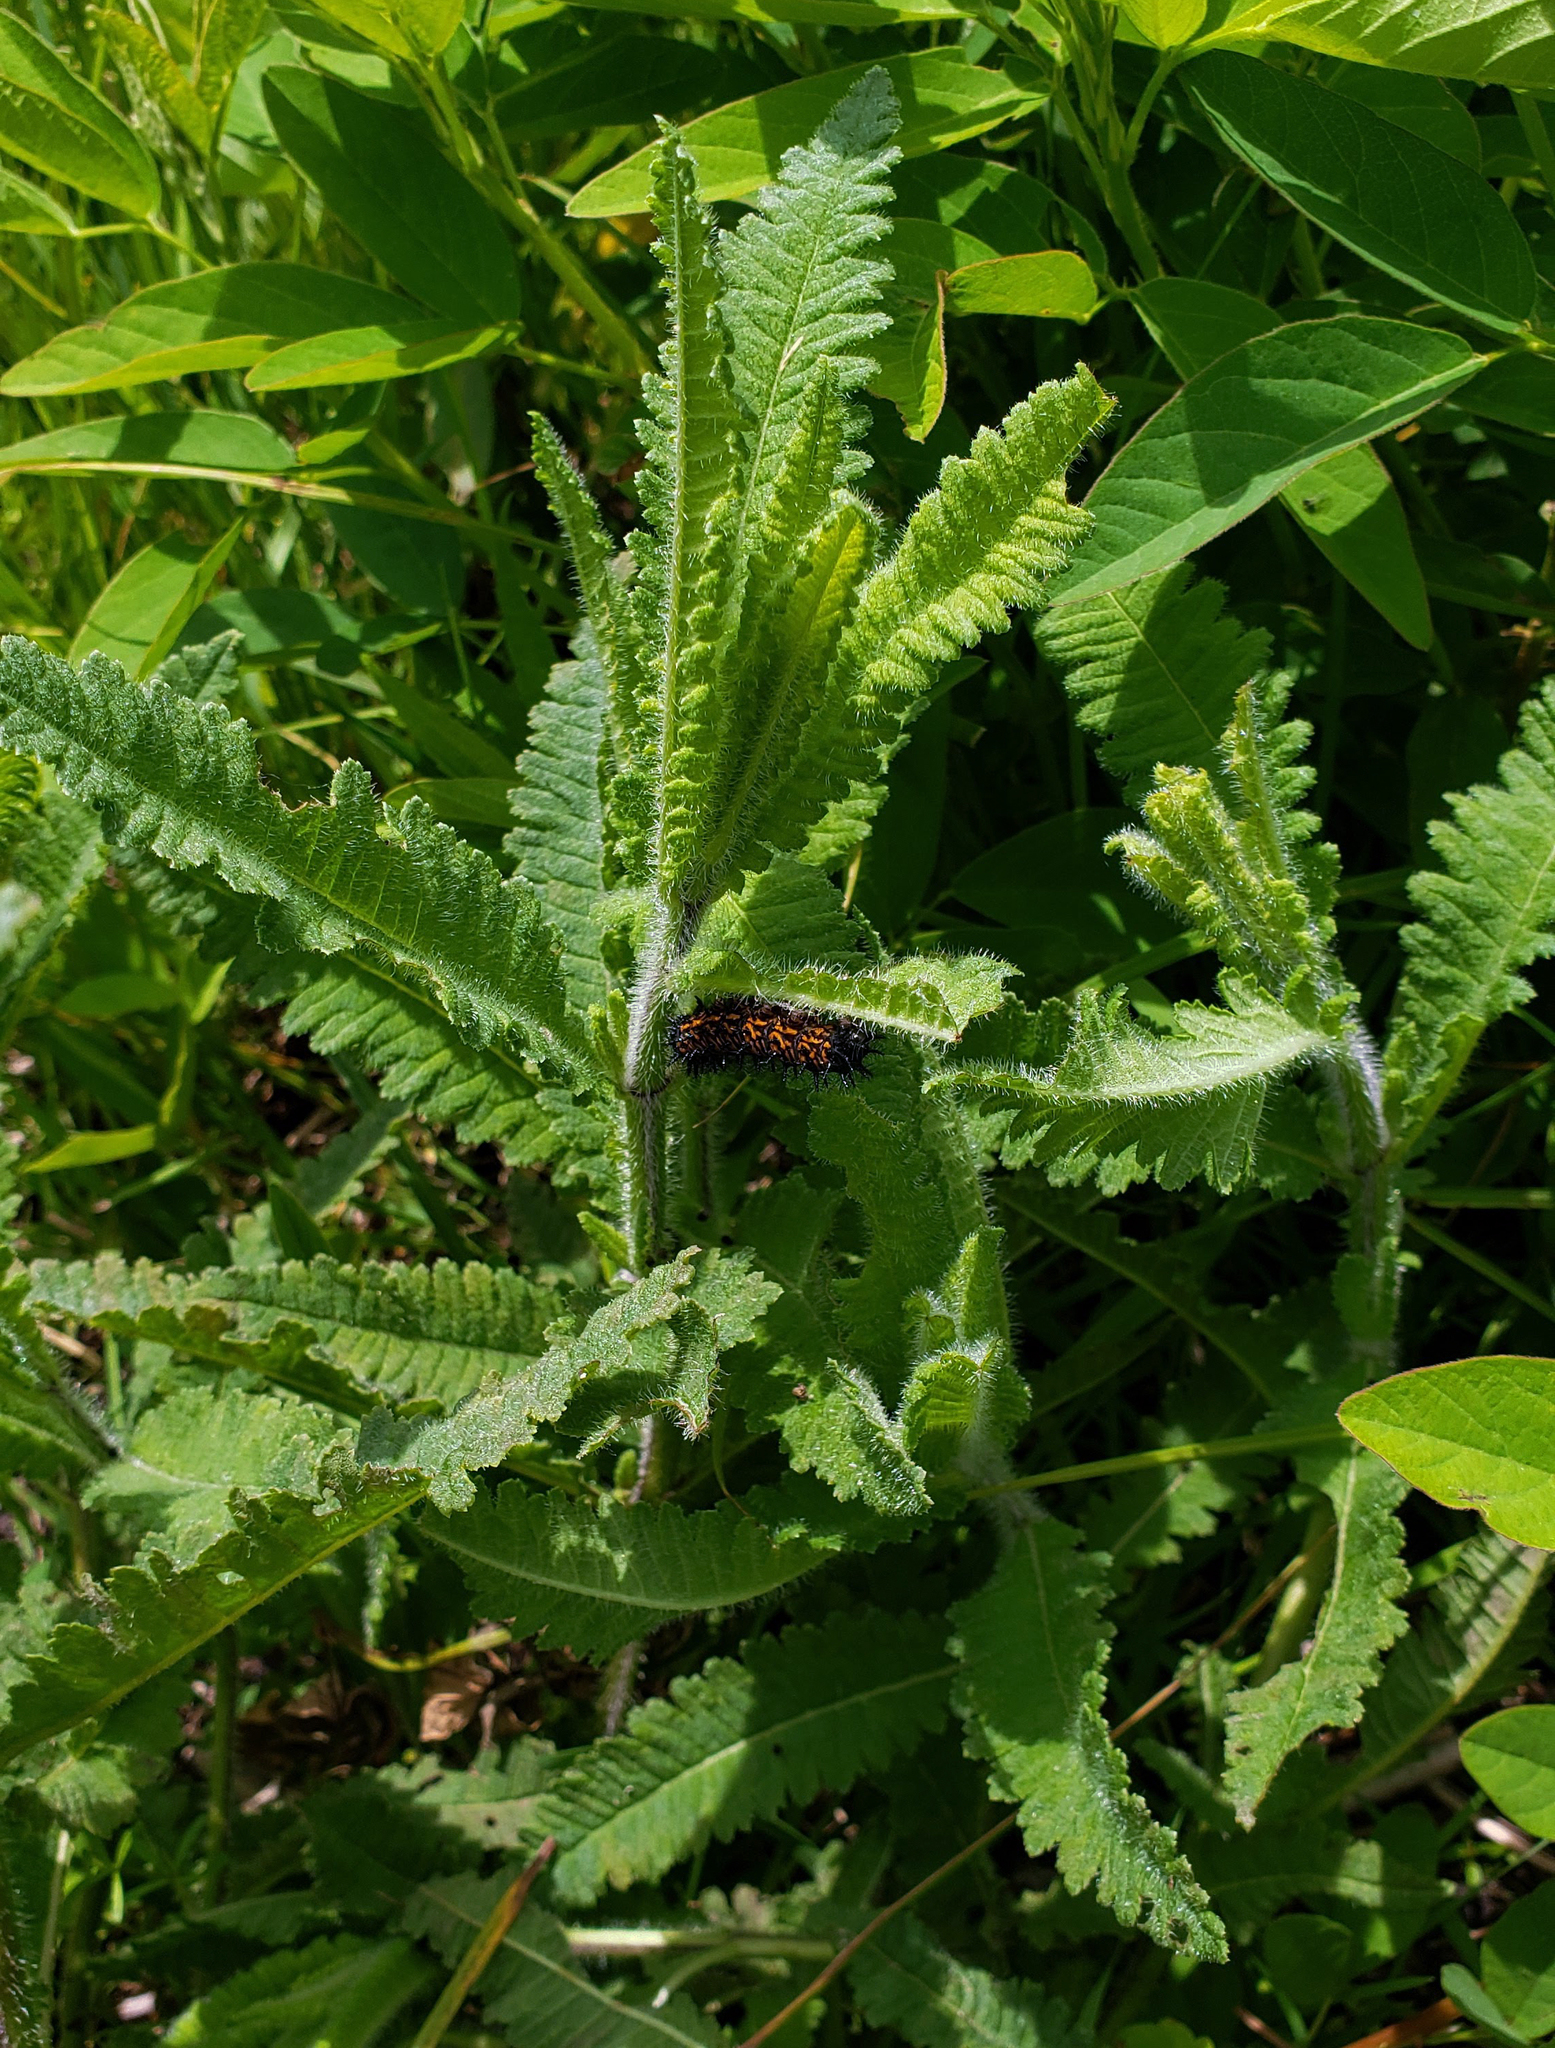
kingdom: Plantae
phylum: Tracheophyta
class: Magnoliopsida
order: Lamiales
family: Orobanchaceae
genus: Pedicularis
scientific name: Pedicularis lanceolata
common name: Swamp lousewort
